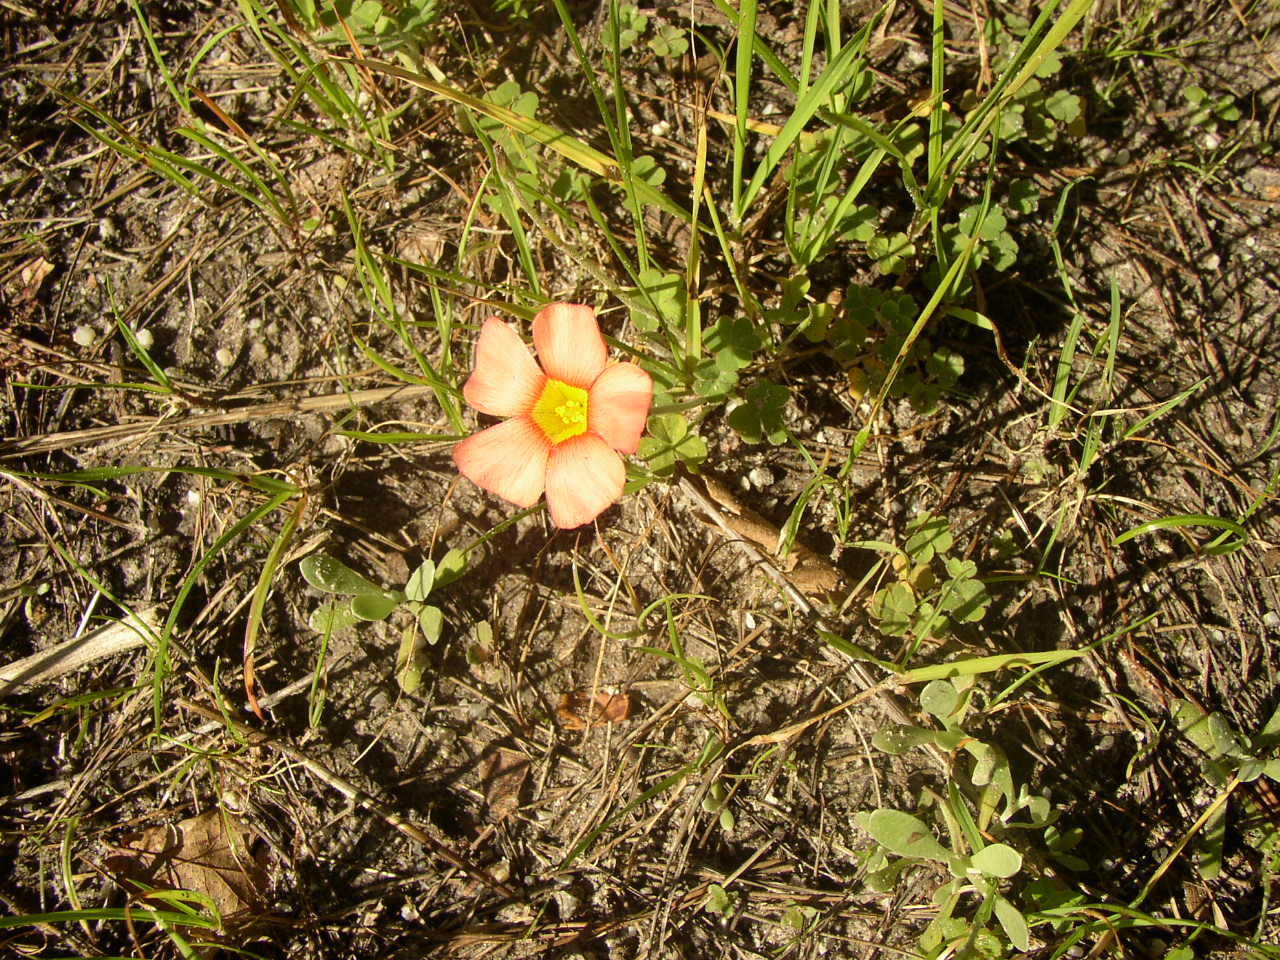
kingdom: Plantae
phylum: Tracheophyta
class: Magnoliopsida
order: Oxalidales
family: Oxalidaceae
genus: Oxalis
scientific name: Oxalis obtusa
